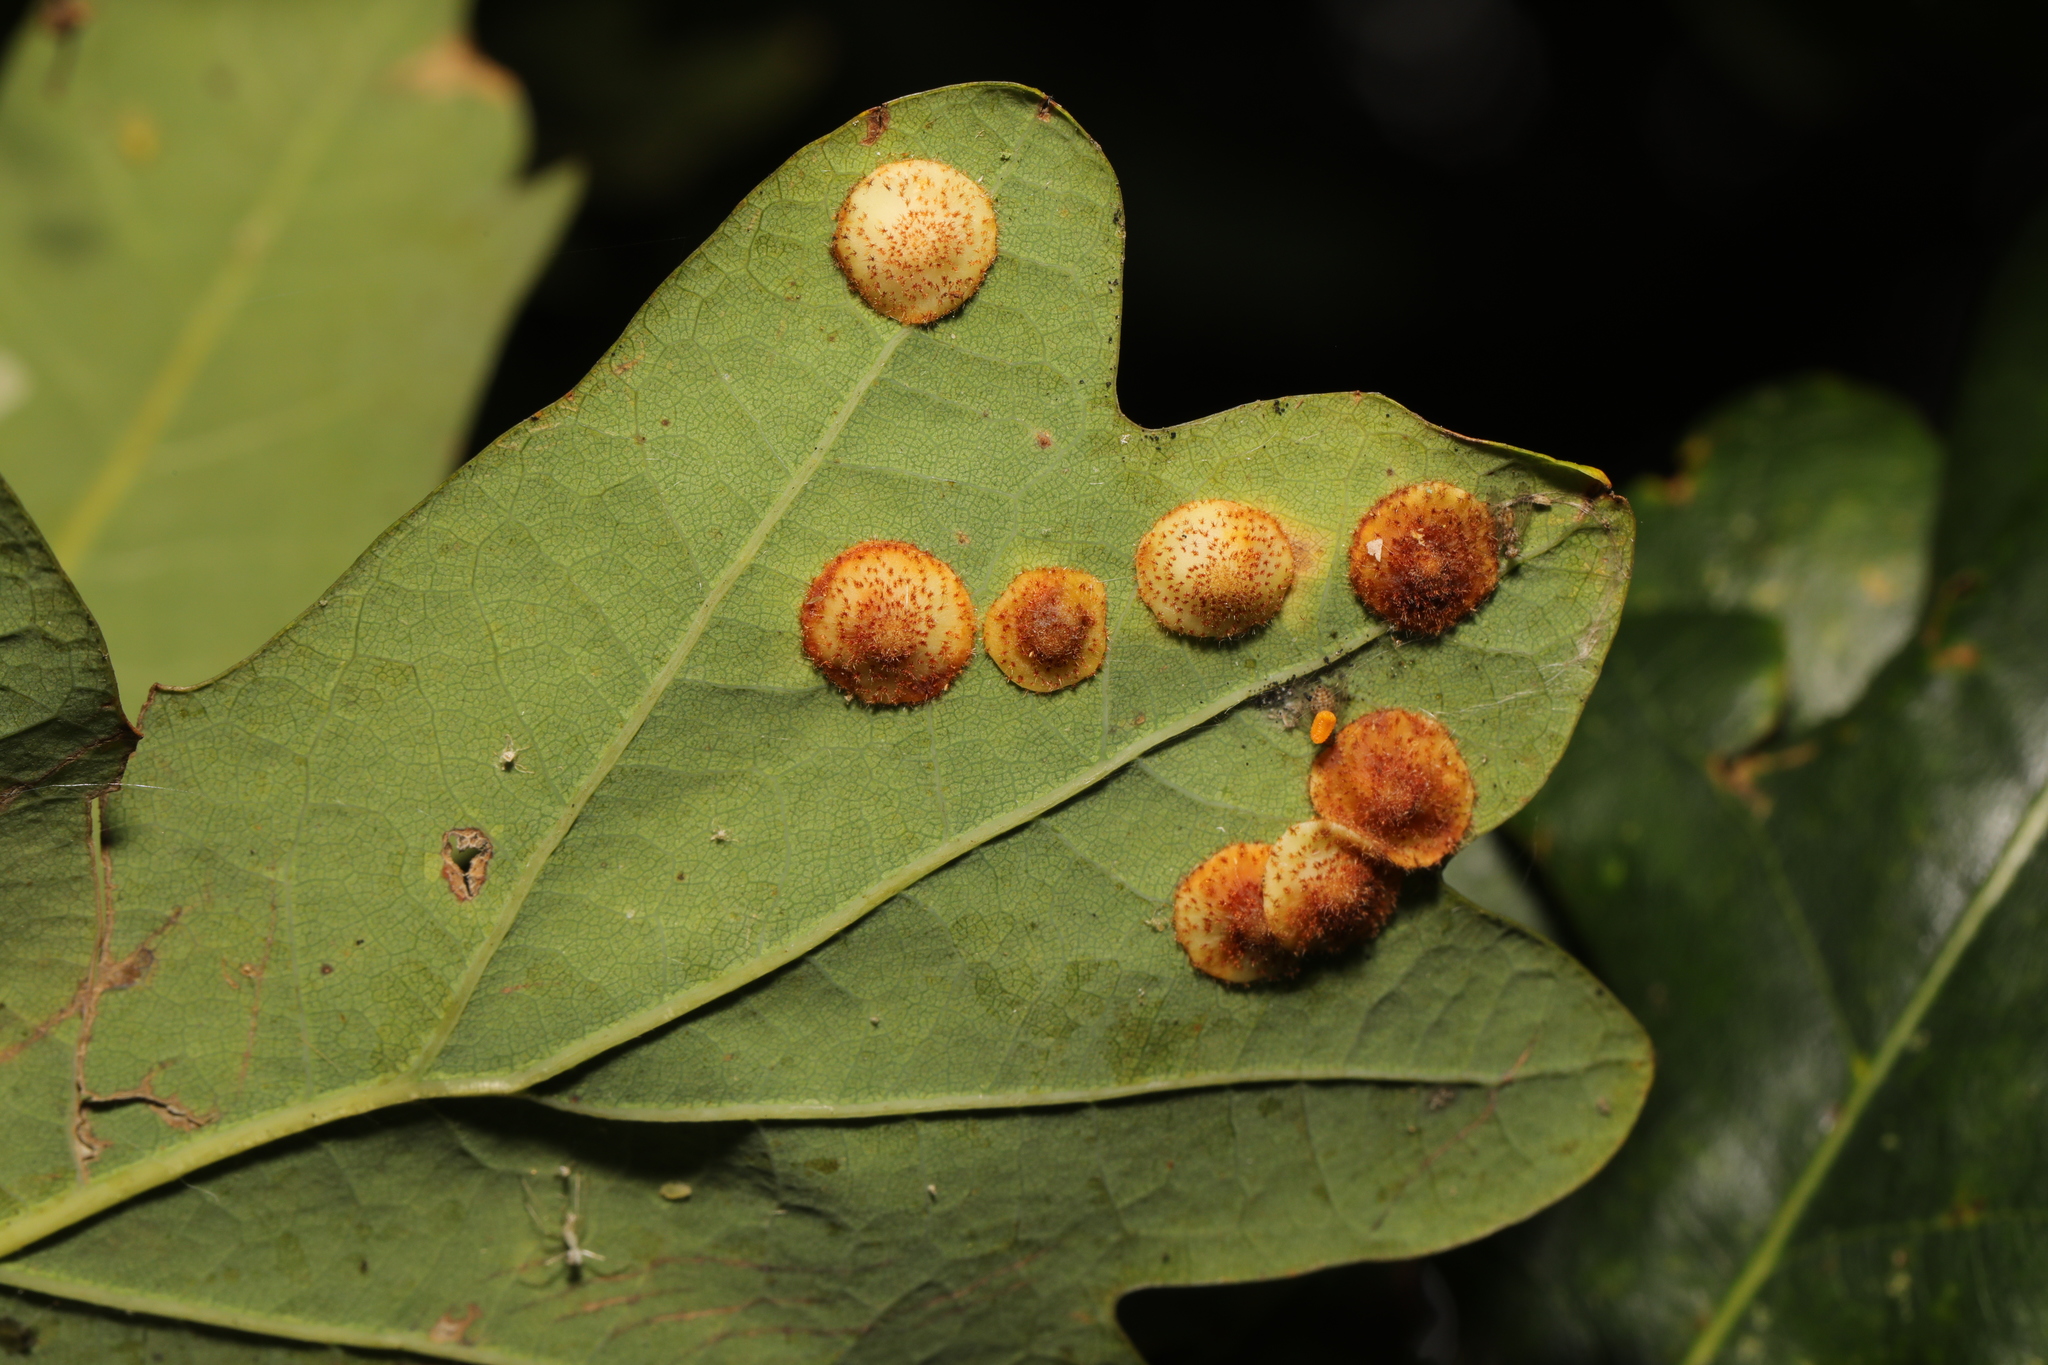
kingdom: Animalia
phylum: Arthropoda
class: Insecta
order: Hymenoptera
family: Cynipidae
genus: Neuroterus
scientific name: Neuroterus quercusbaccarum
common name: Common spangle gall
